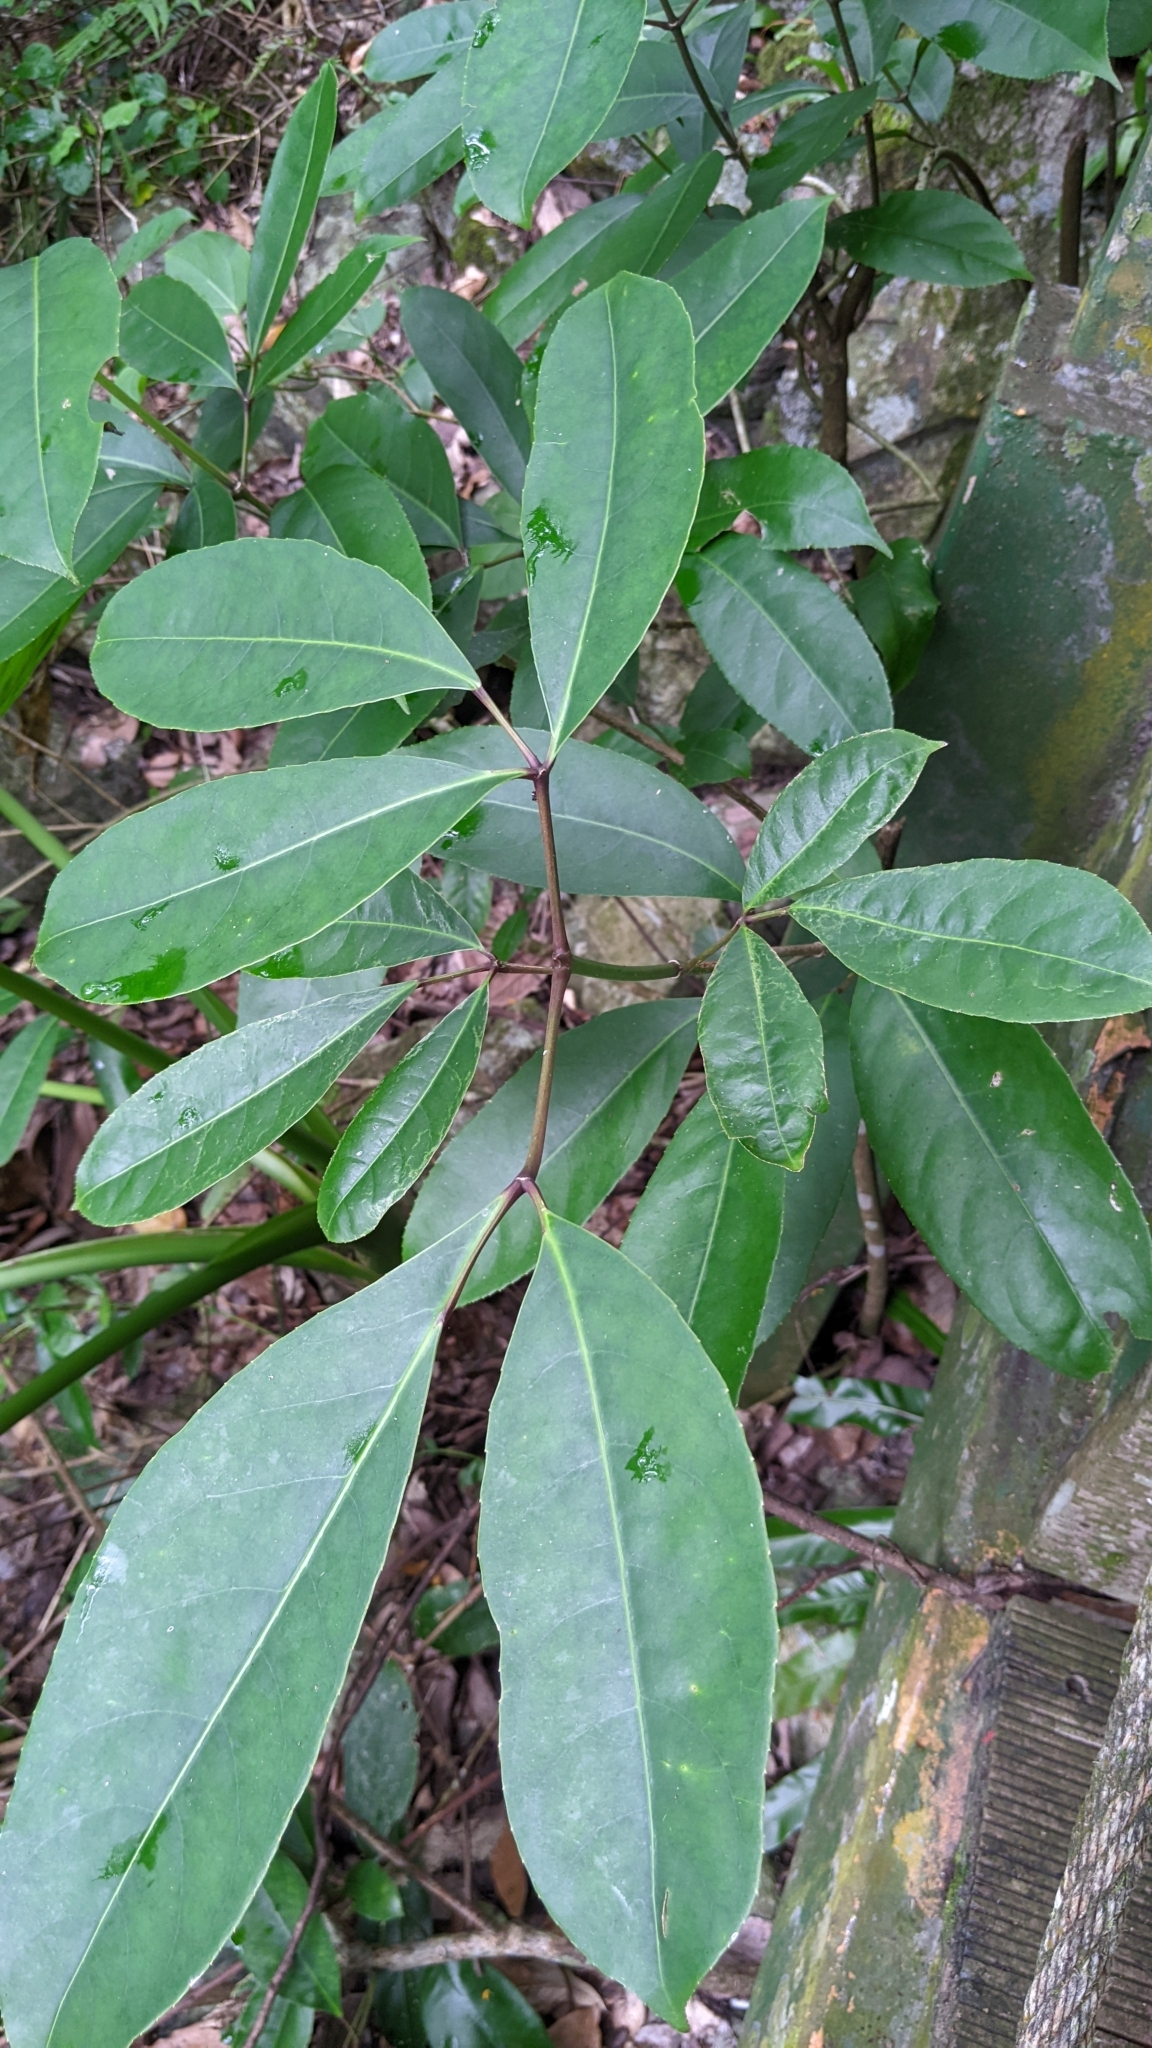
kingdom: Plantae
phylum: Tracheophyta
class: Magnoliopsida
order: Crossosomatales
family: Staphyleaceae
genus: Turpinia
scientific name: Turpinia ternata
